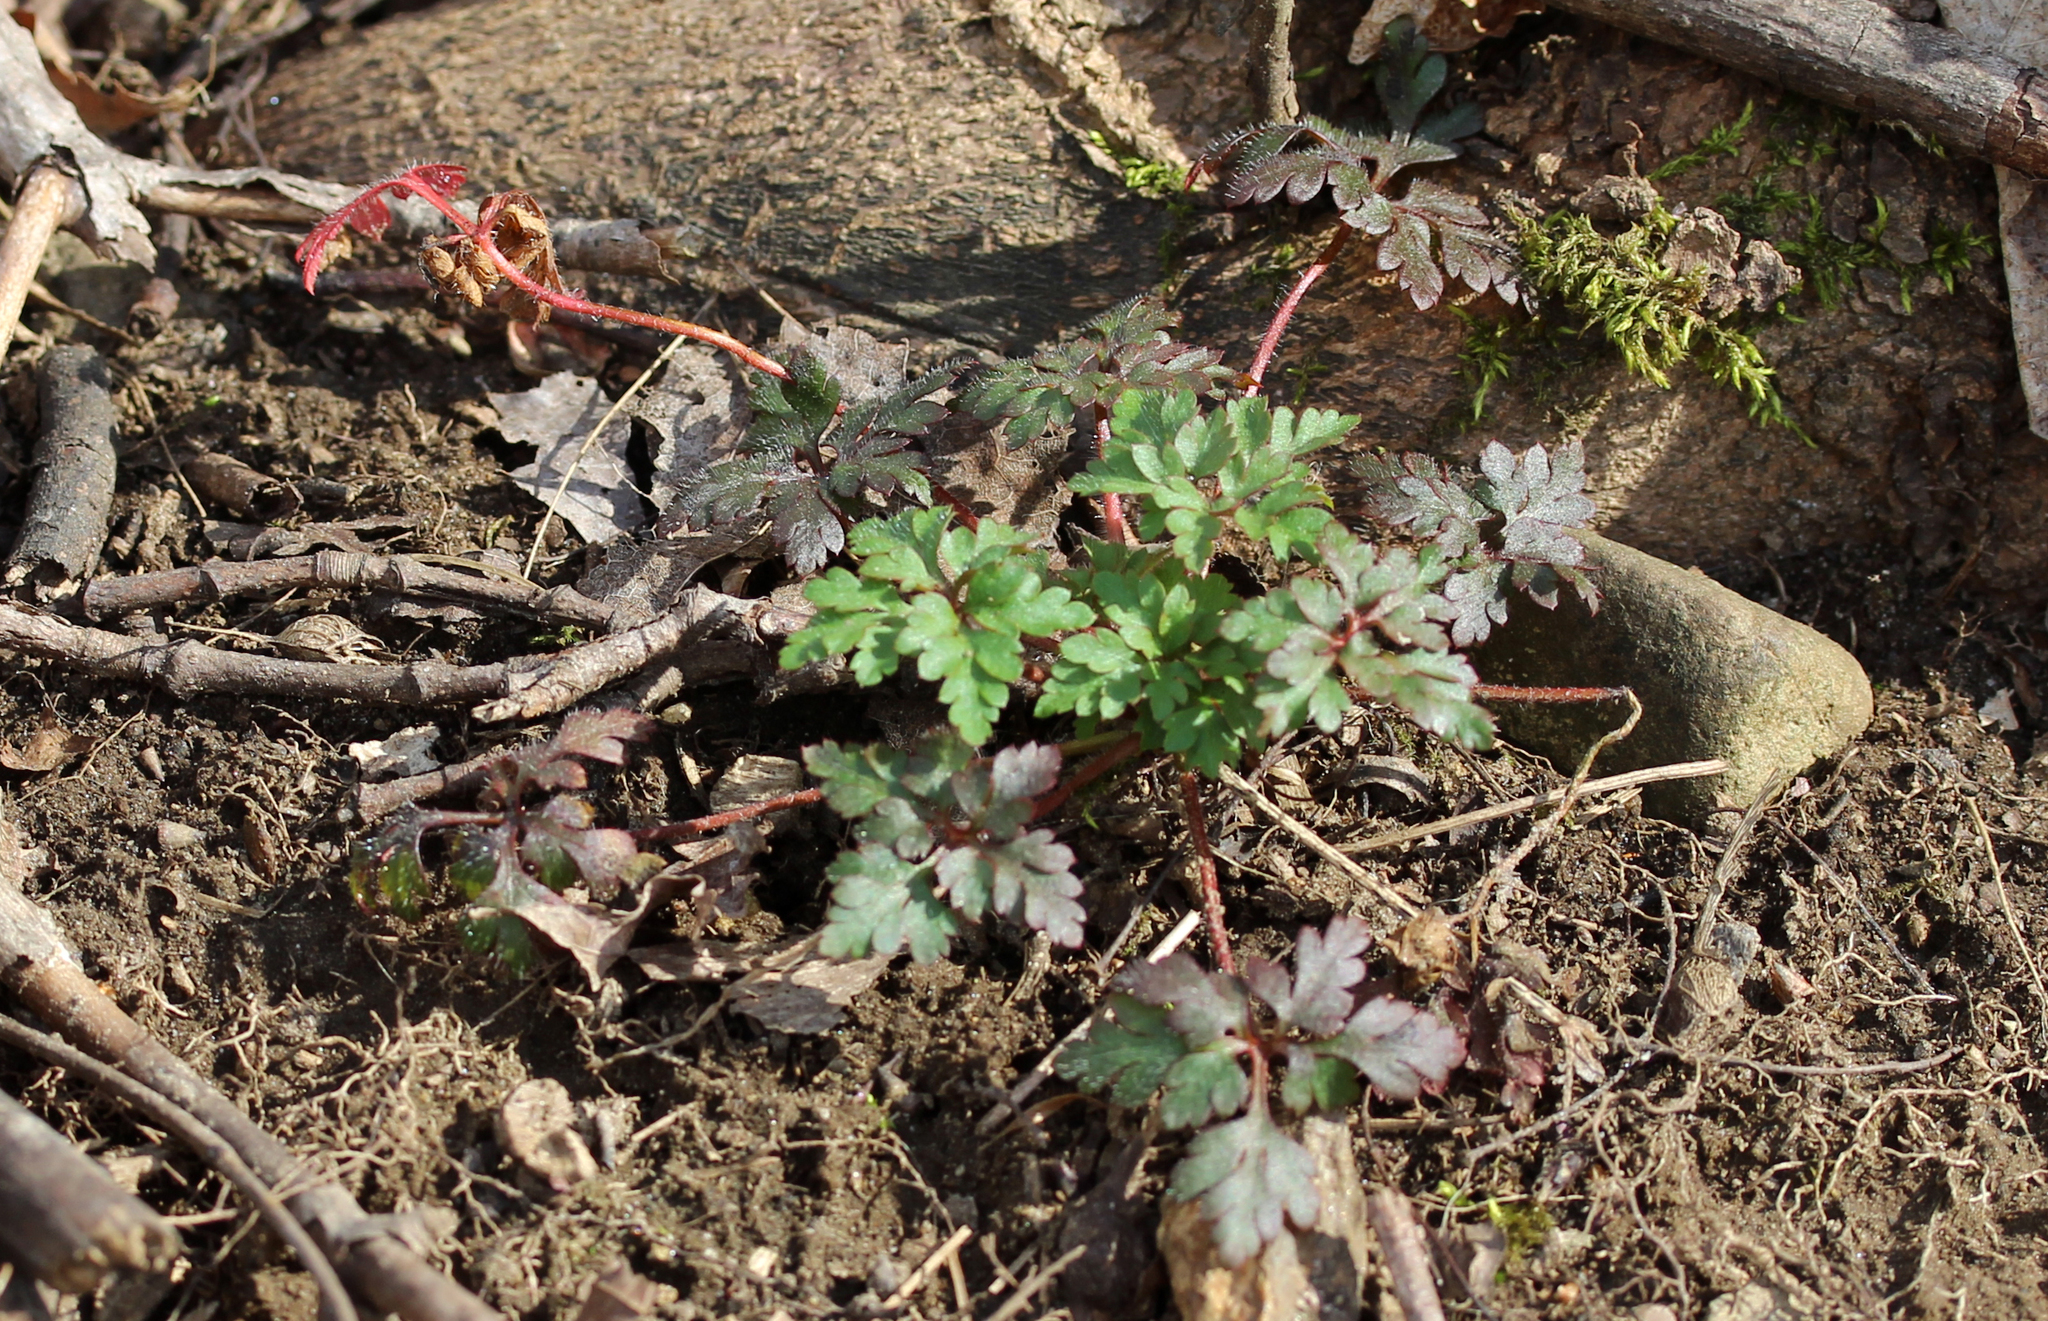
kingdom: Plantae
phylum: Tracheophyta
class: Magnoliopsida
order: Geraniales
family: Geraniaceae
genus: Geranium
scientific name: Geranium robertianum
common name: Herb-robert
